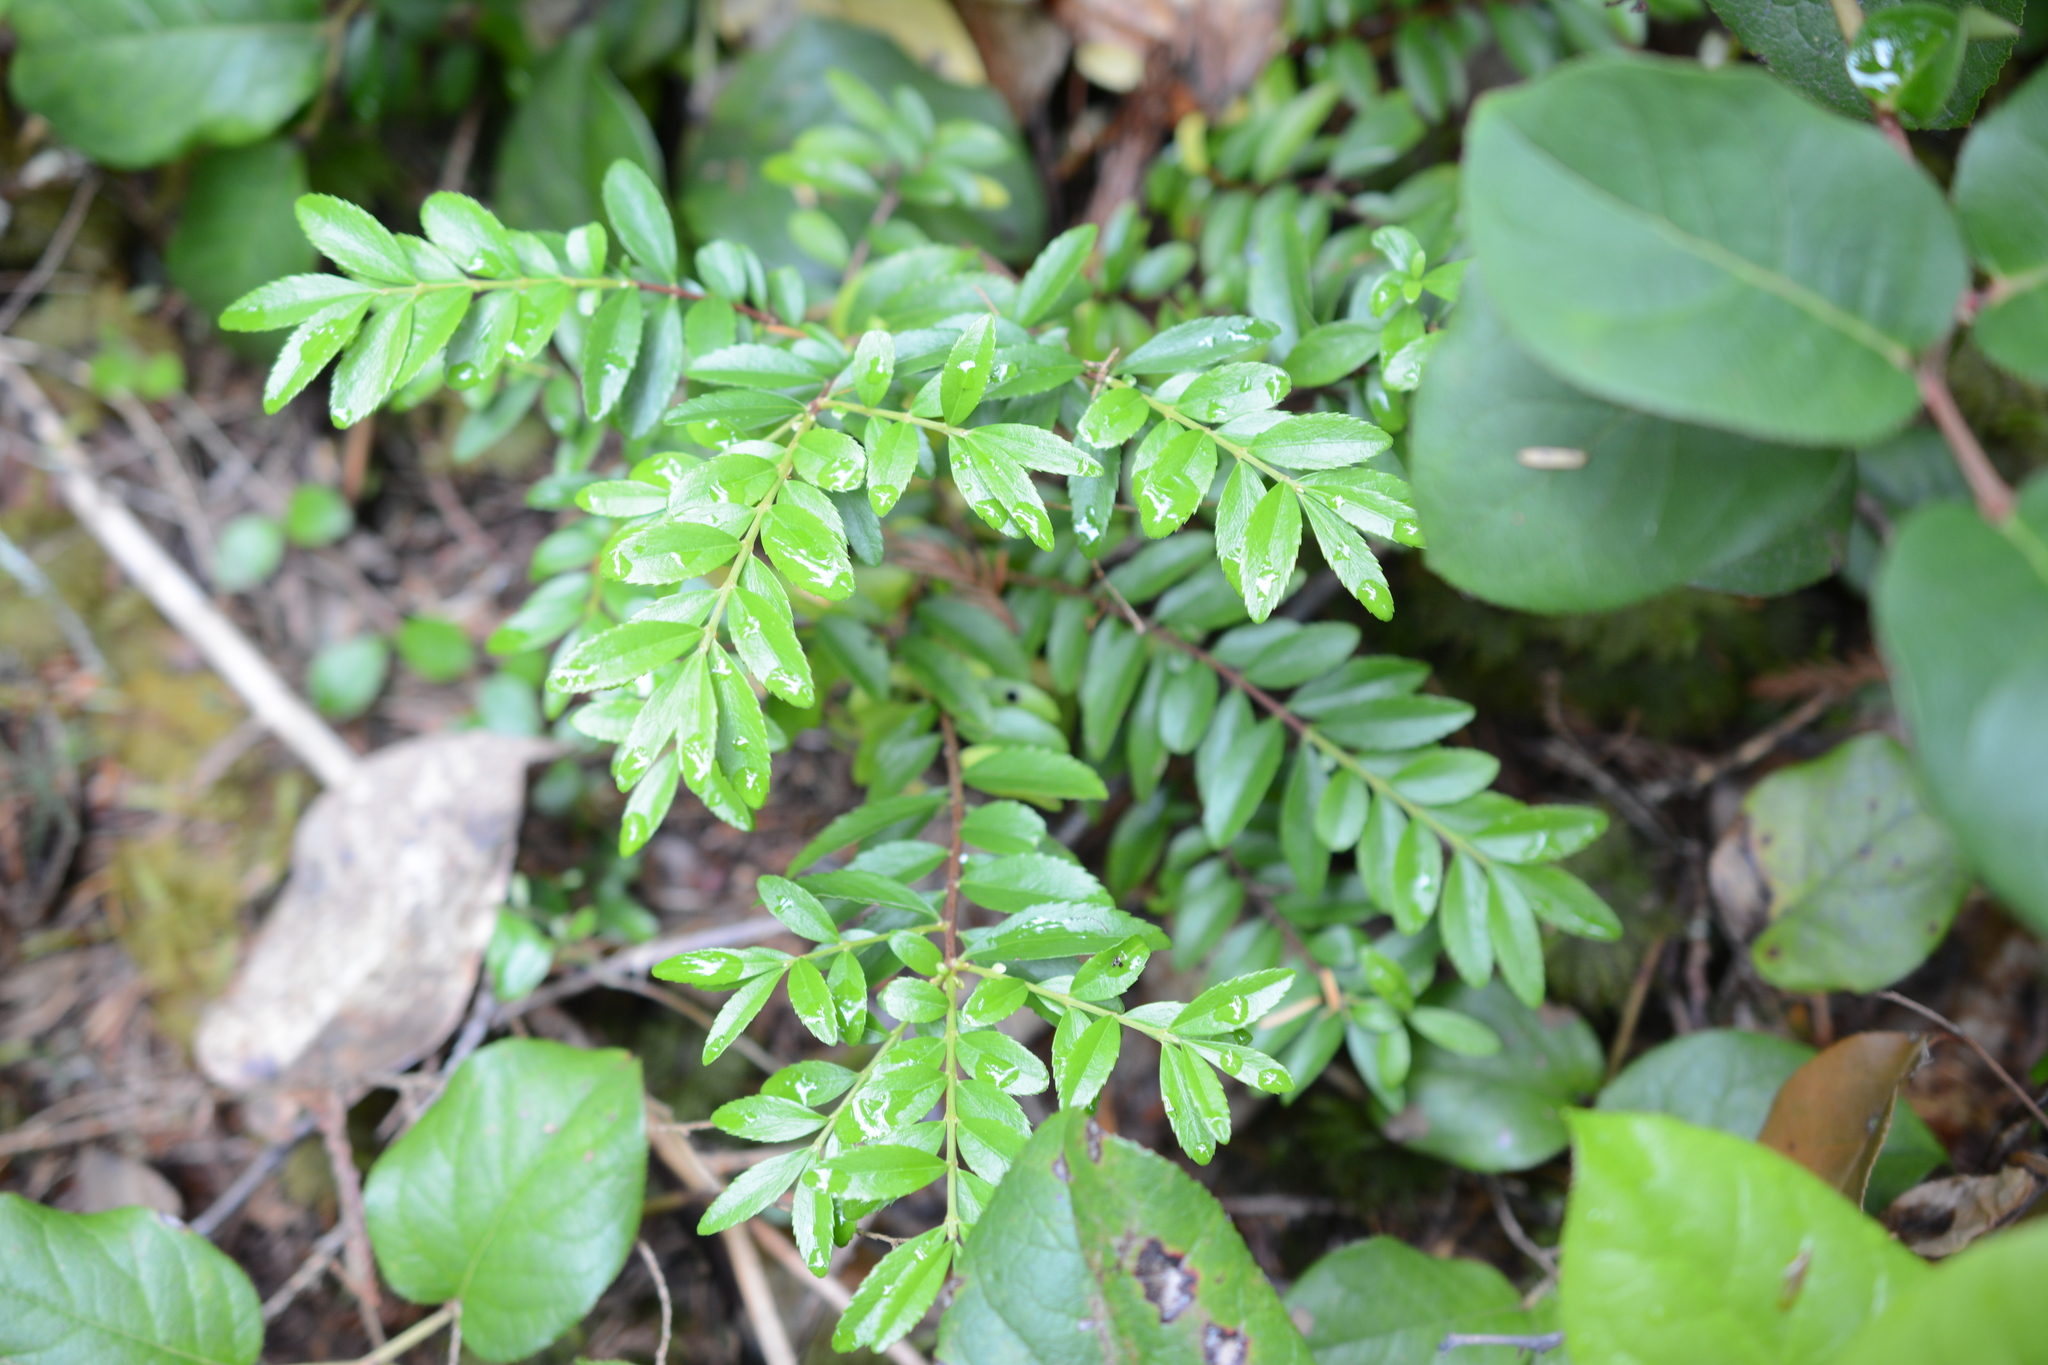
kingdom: Plantae
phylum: Tracheophyta
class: Magnoliopsida
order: Celastrales
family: Celastraceae
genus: Paxistima
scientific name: Paxistima myrsinites
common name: Mountain-lover
